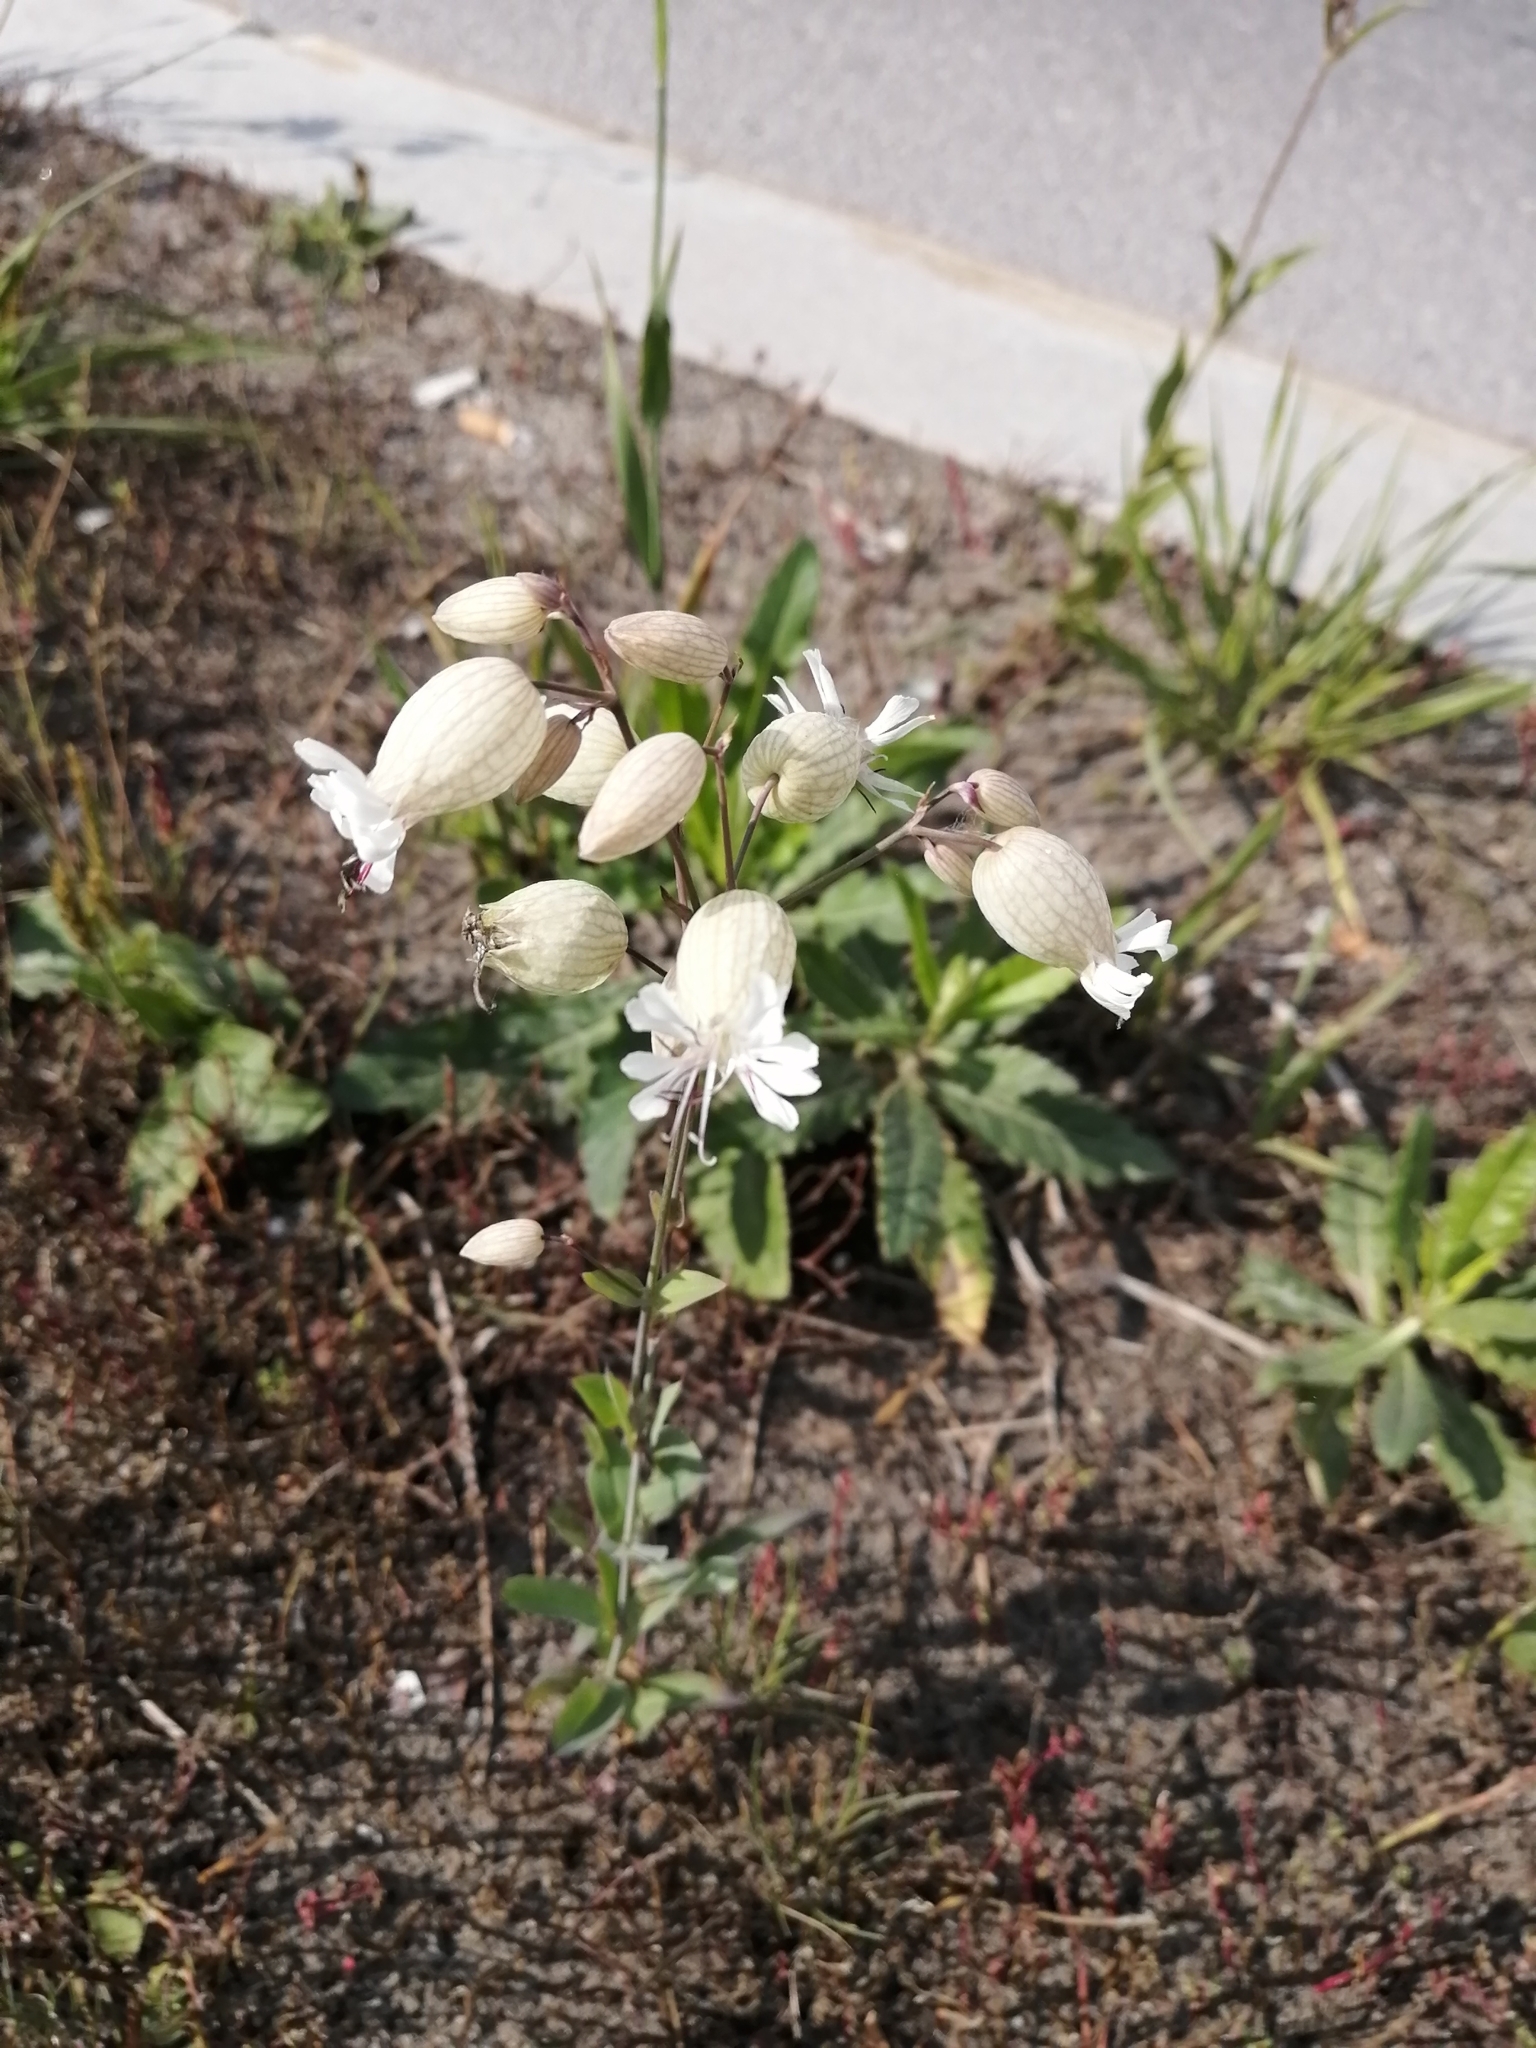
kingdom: Plantae
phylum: Tracheophyta
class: Magnoliopsida
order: Caryophyllales
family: Caryophyllaceae
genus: Silene
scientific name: Silene vulgaris
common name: Bladder campion
